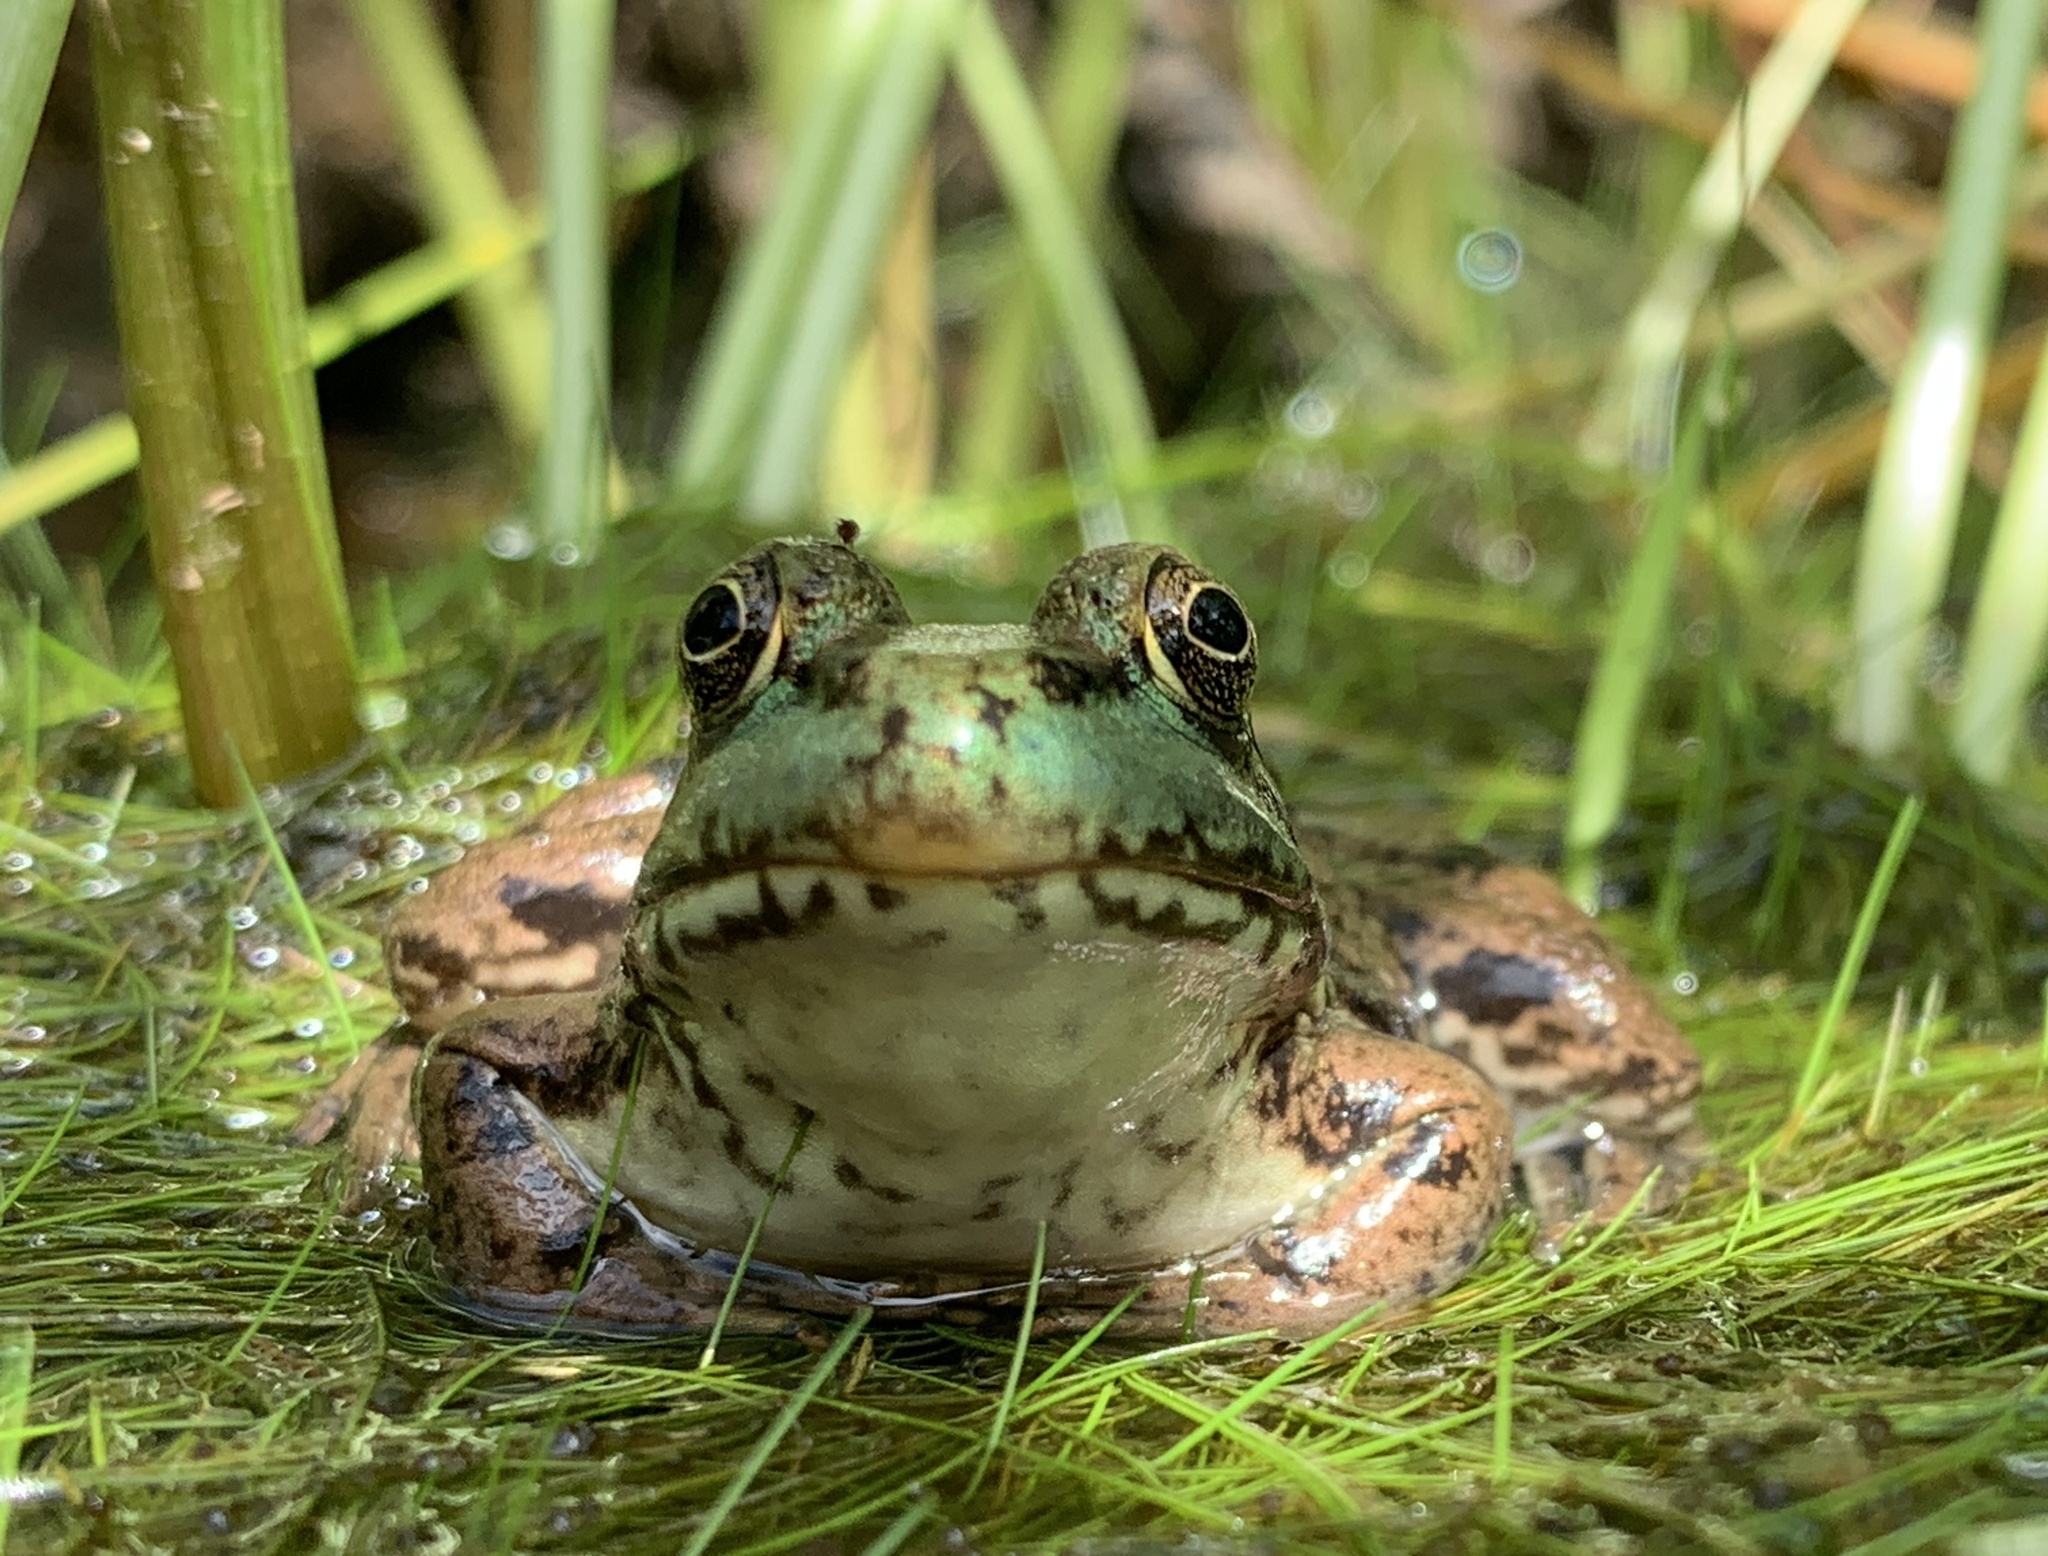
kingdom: Animalia
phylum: Chordata
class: Amphibia
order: Anura
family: Ranidae
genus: Lithobates
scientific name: Lithobates clamitans
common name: Green frog
